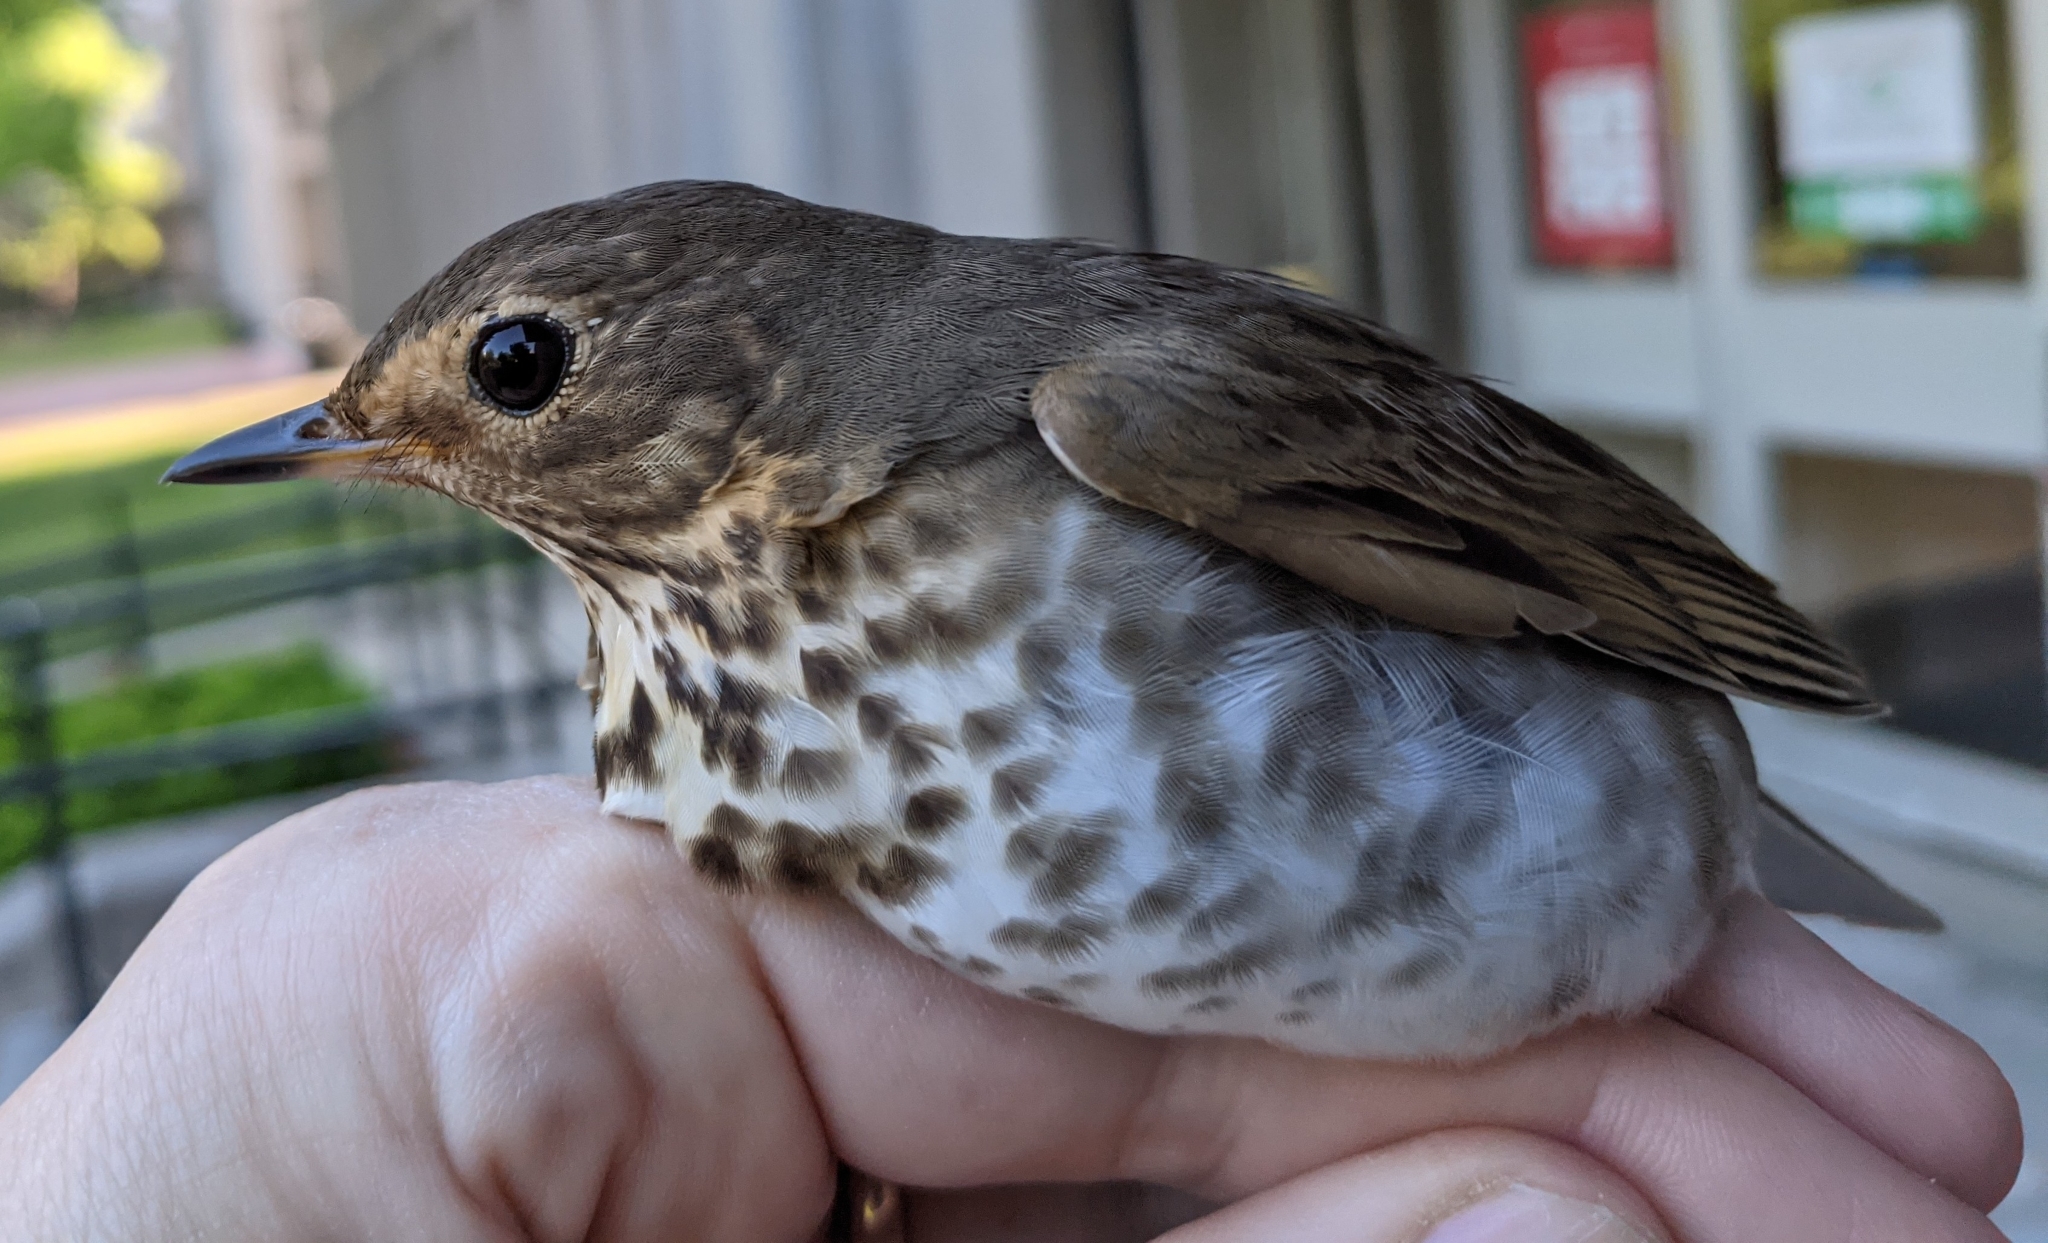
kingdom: Animalia
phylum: Chordata
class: Aves
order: Passeriformes
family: Turdidae
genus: Catharus
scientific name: Catharus ustulatus
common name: Swainson's thrush
